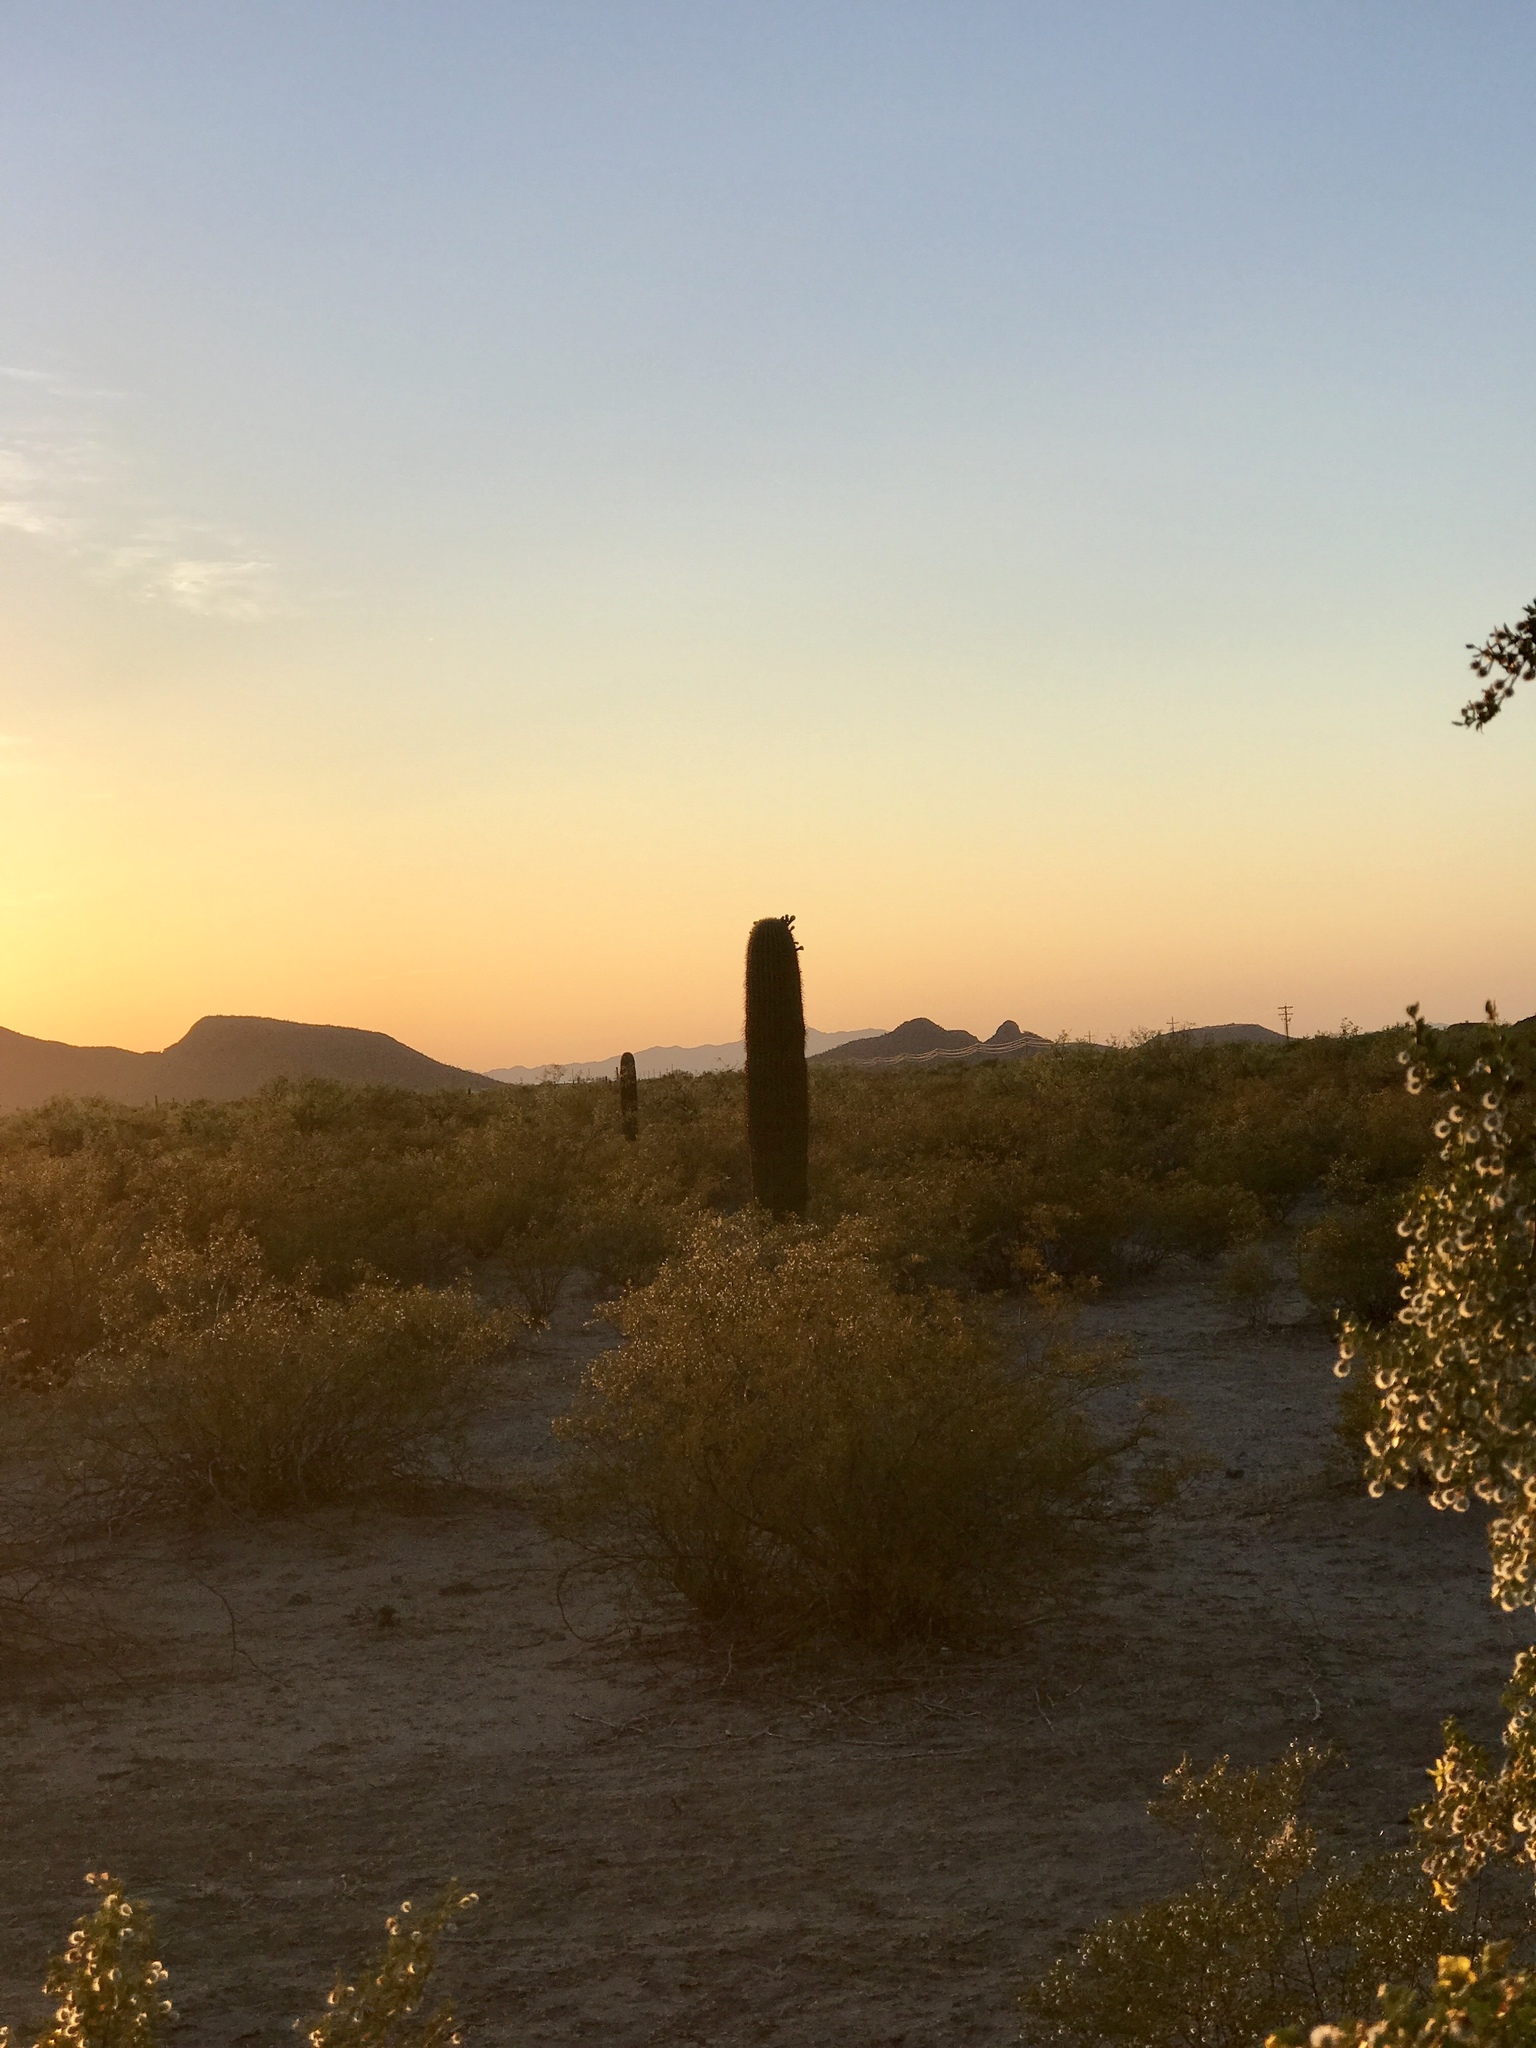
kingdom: Plantae
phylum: Tracheophyta
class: Magnoliopsida
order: Caryophyllales
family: Cactaceae
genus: Carnegiea
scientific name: Carnegiea gigantea
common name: Saguaro
